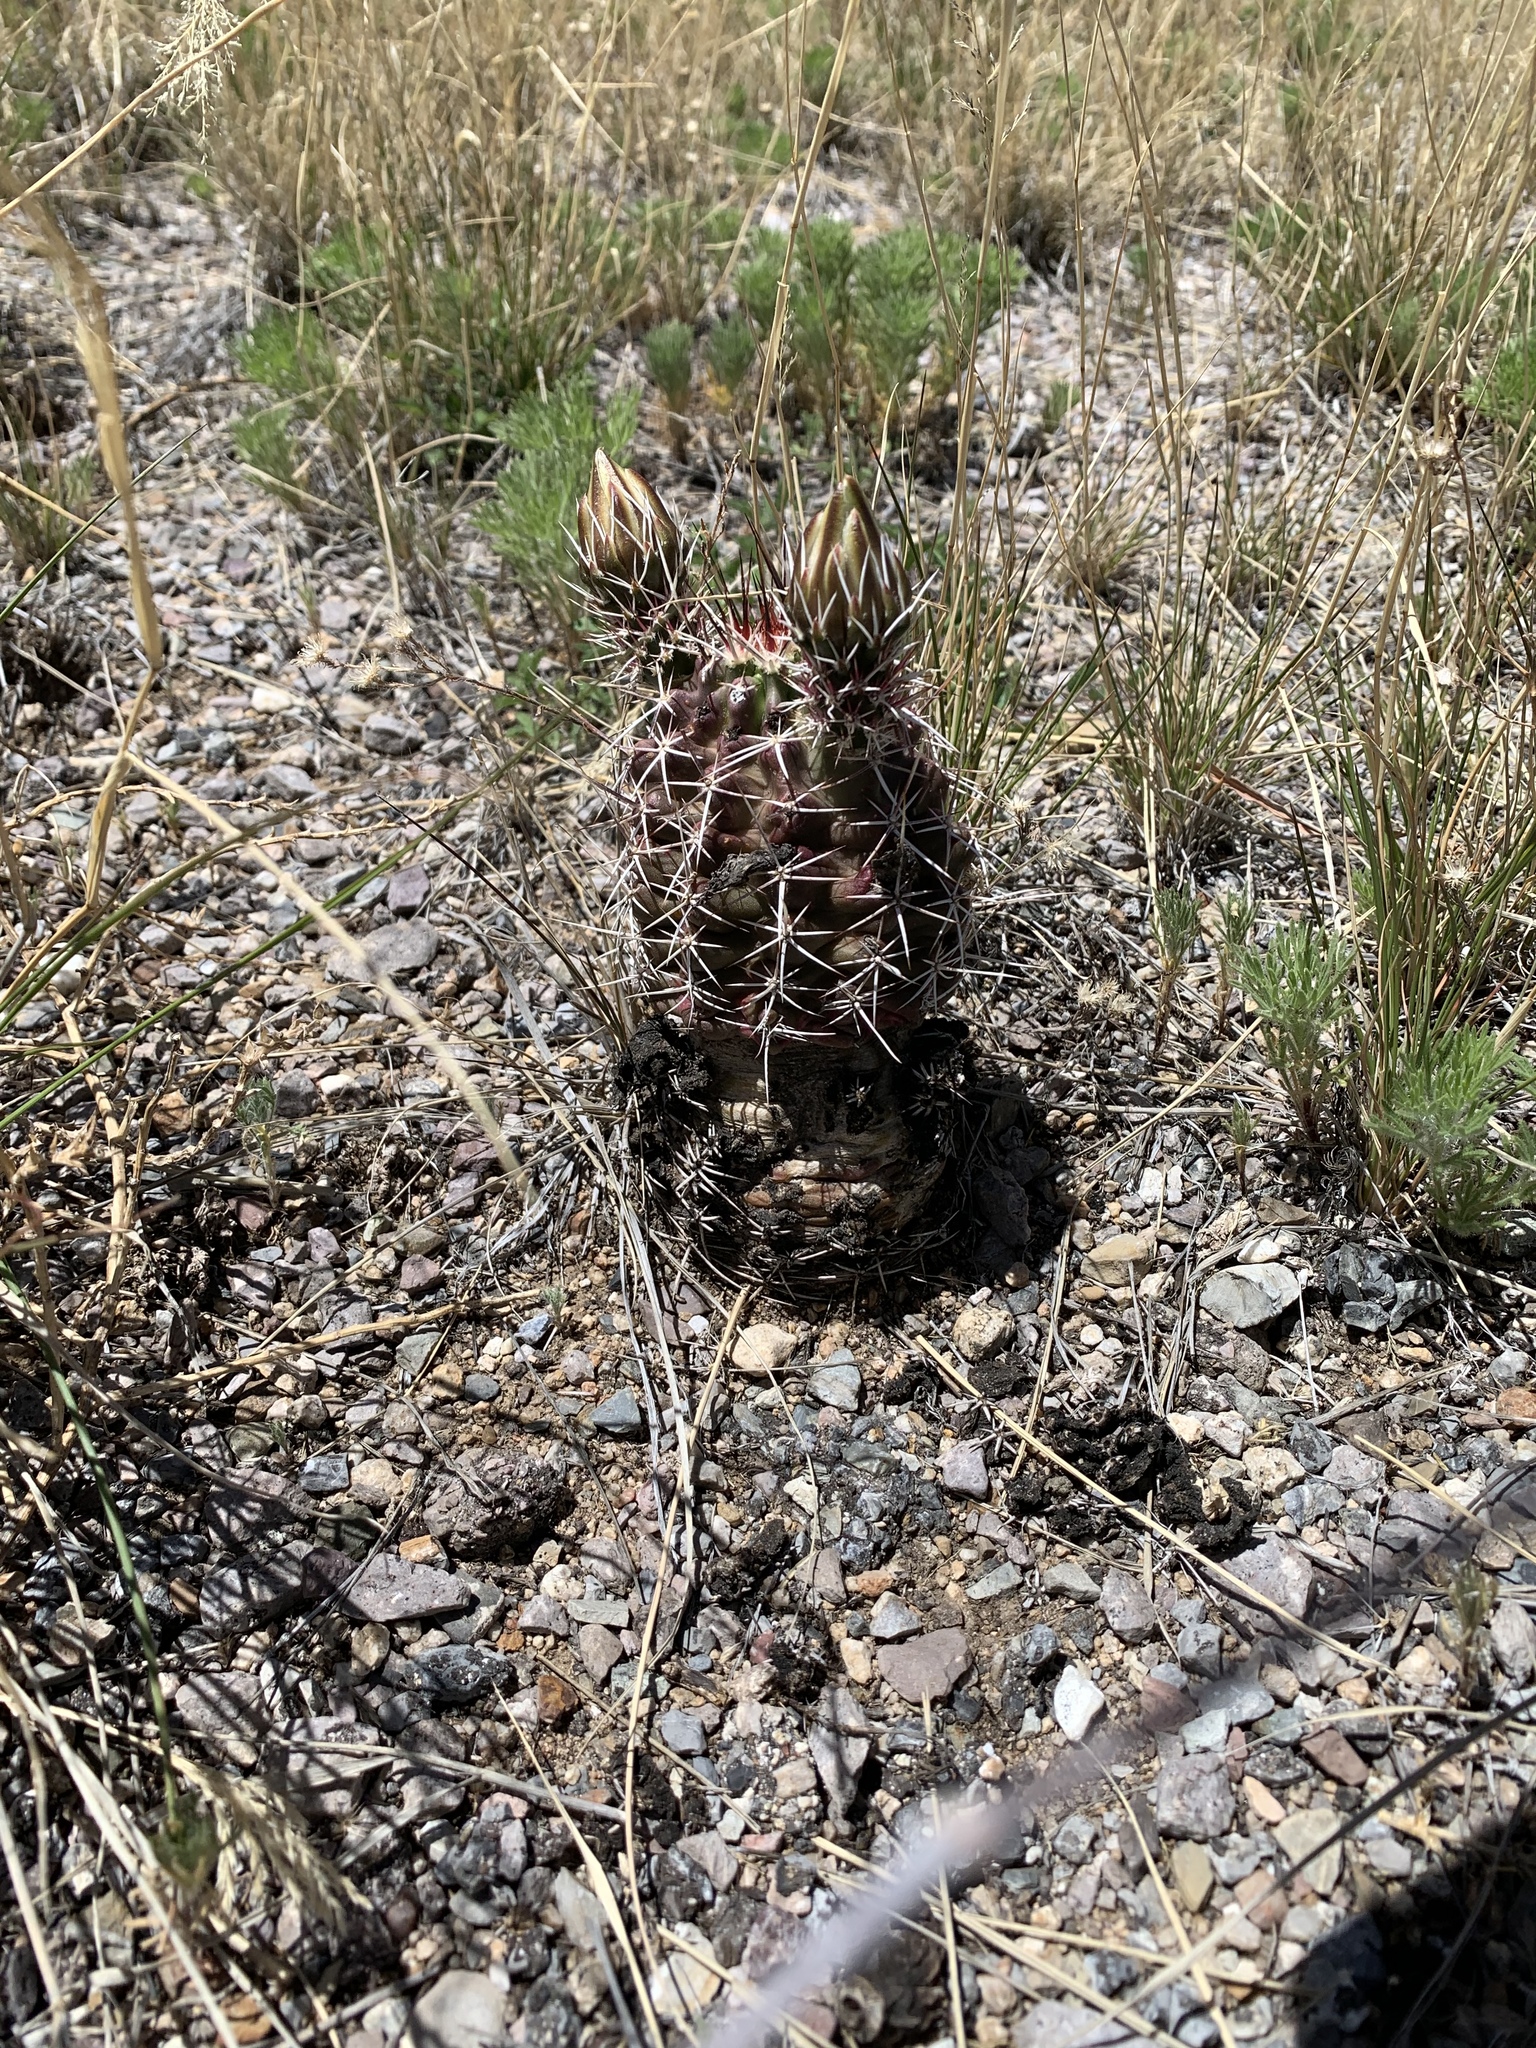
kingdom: Plantae
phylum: Tracheophyta
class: Magnoliopsida
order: Caryophyllales
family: Cactaceae
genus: Echinocereus
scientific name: Echinocereus fendleri
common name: Fendler's hedgehog cactus
